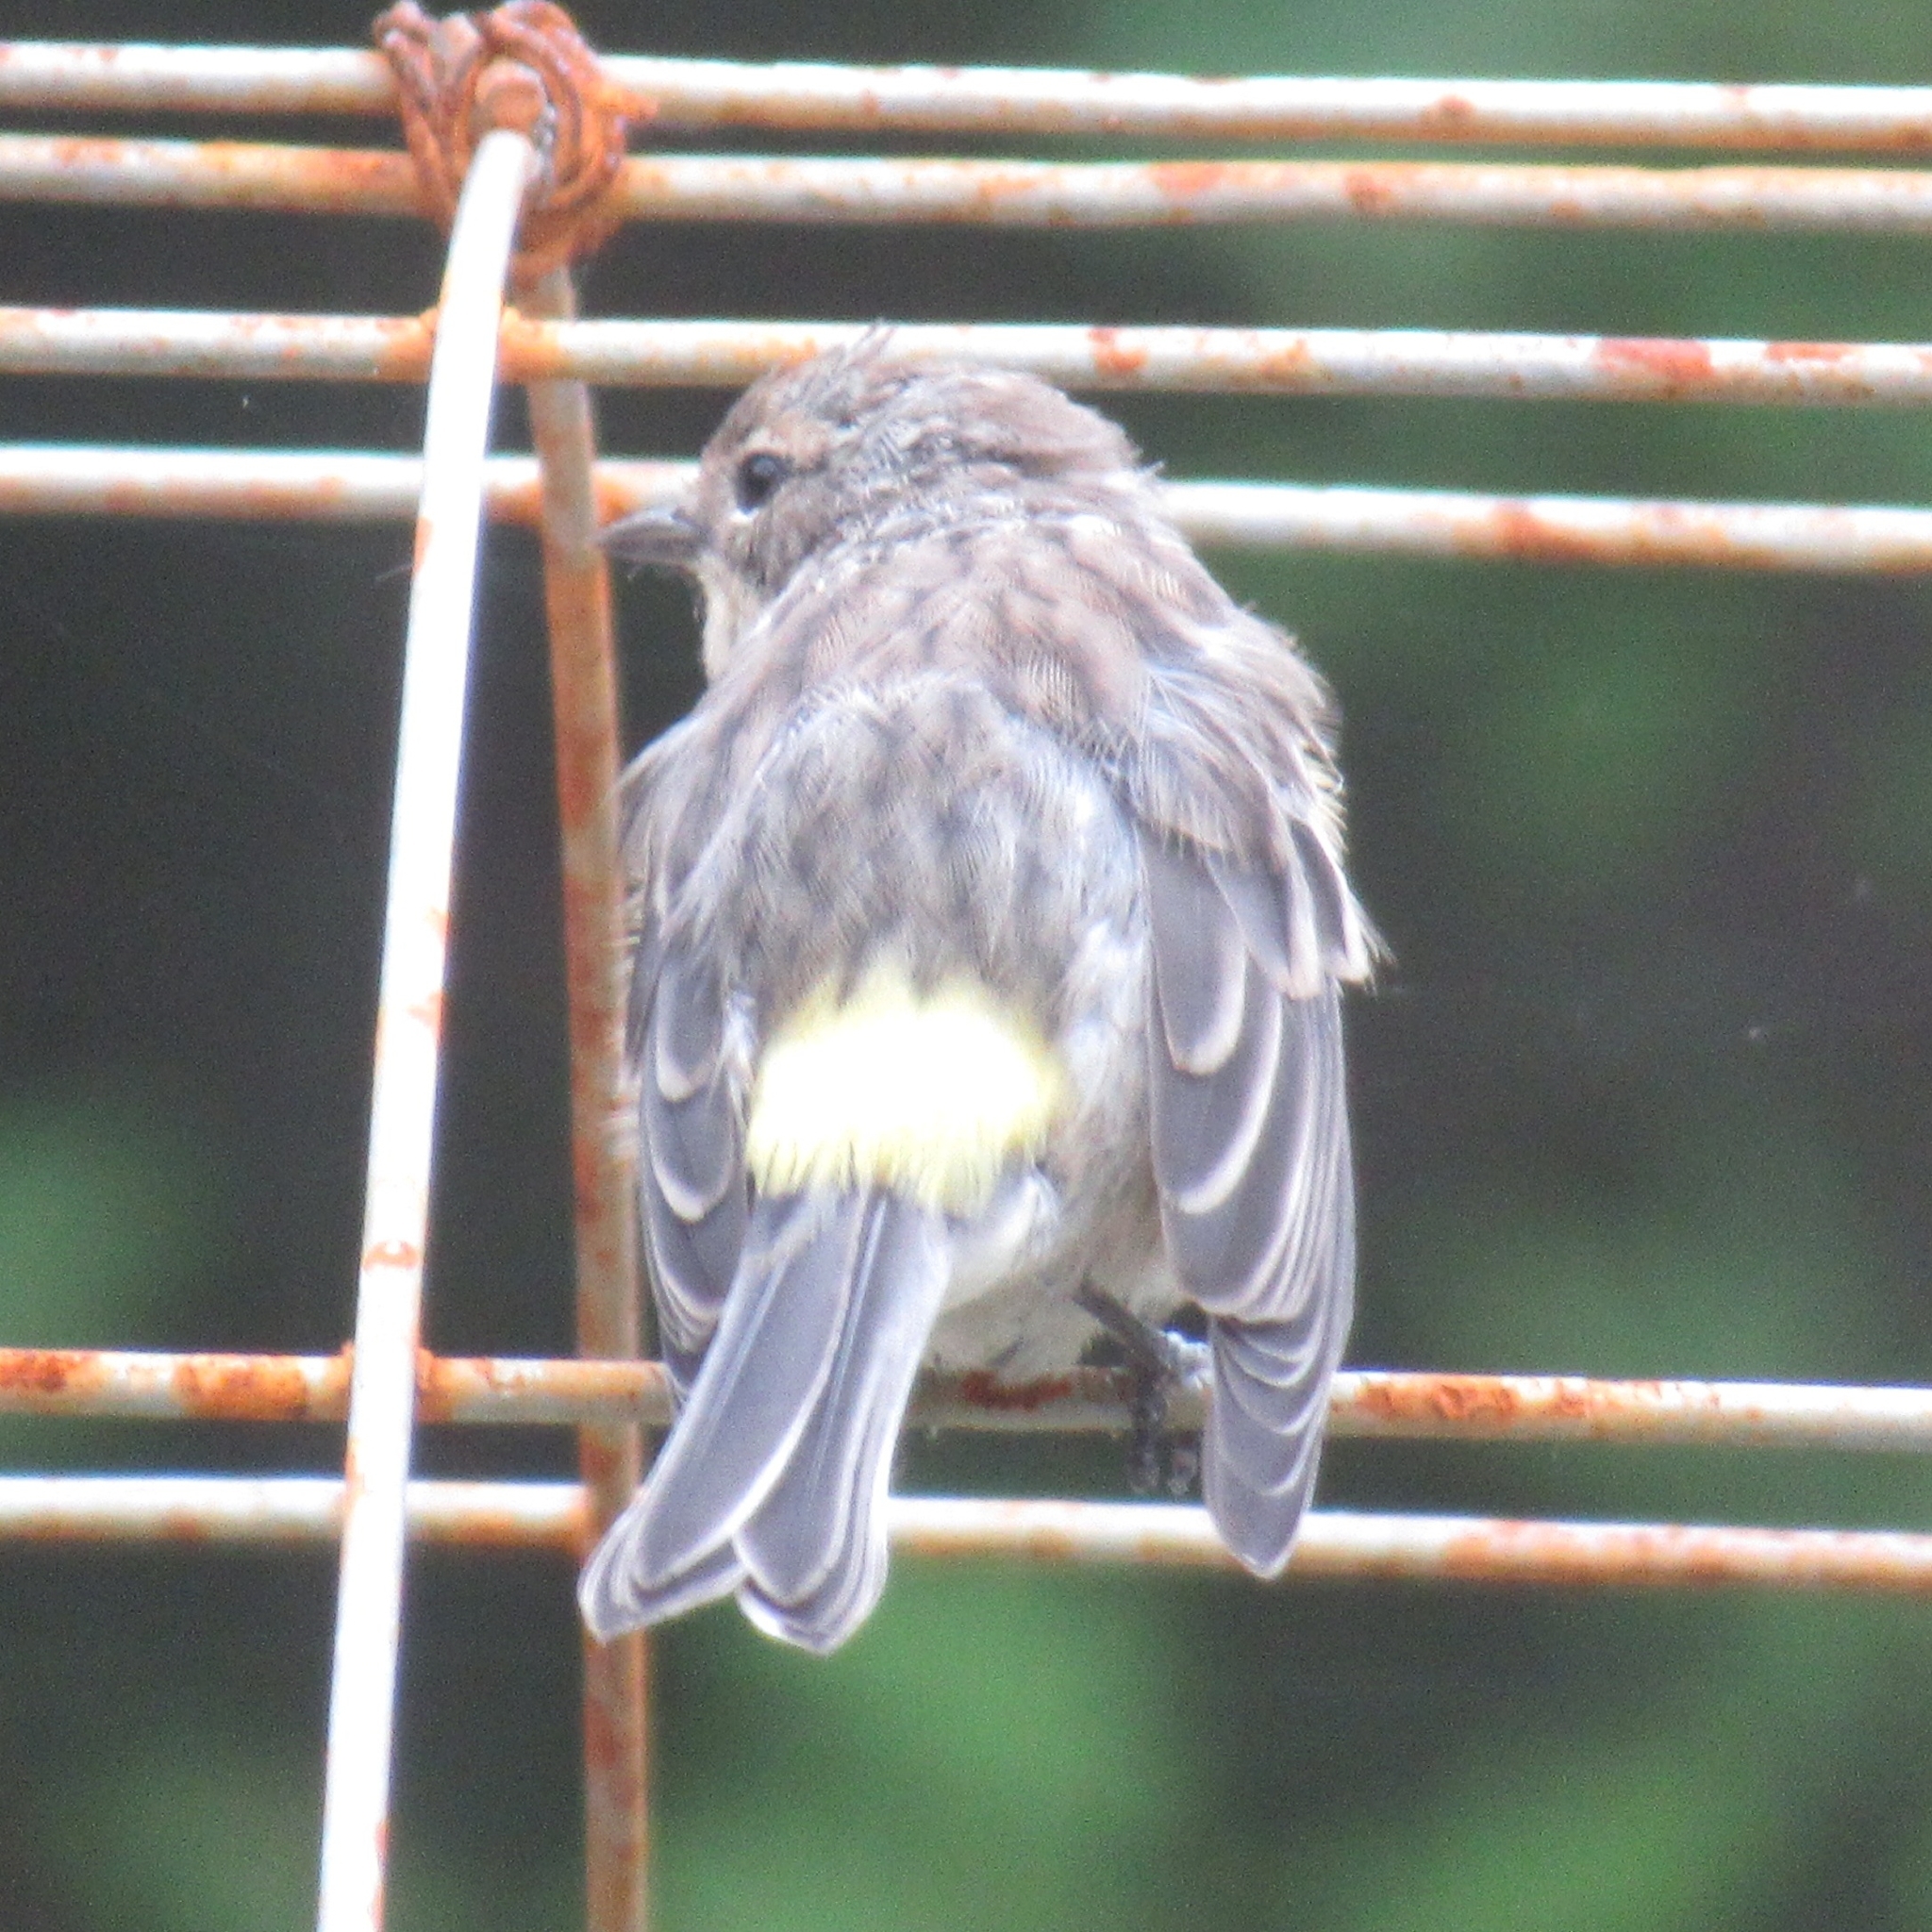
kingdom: Animalia
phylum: Chordata
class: Aves
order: Passeriformes
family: Parulidae
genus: Setophaga
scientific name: Setophaga coronata
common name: Myrtle warbler
